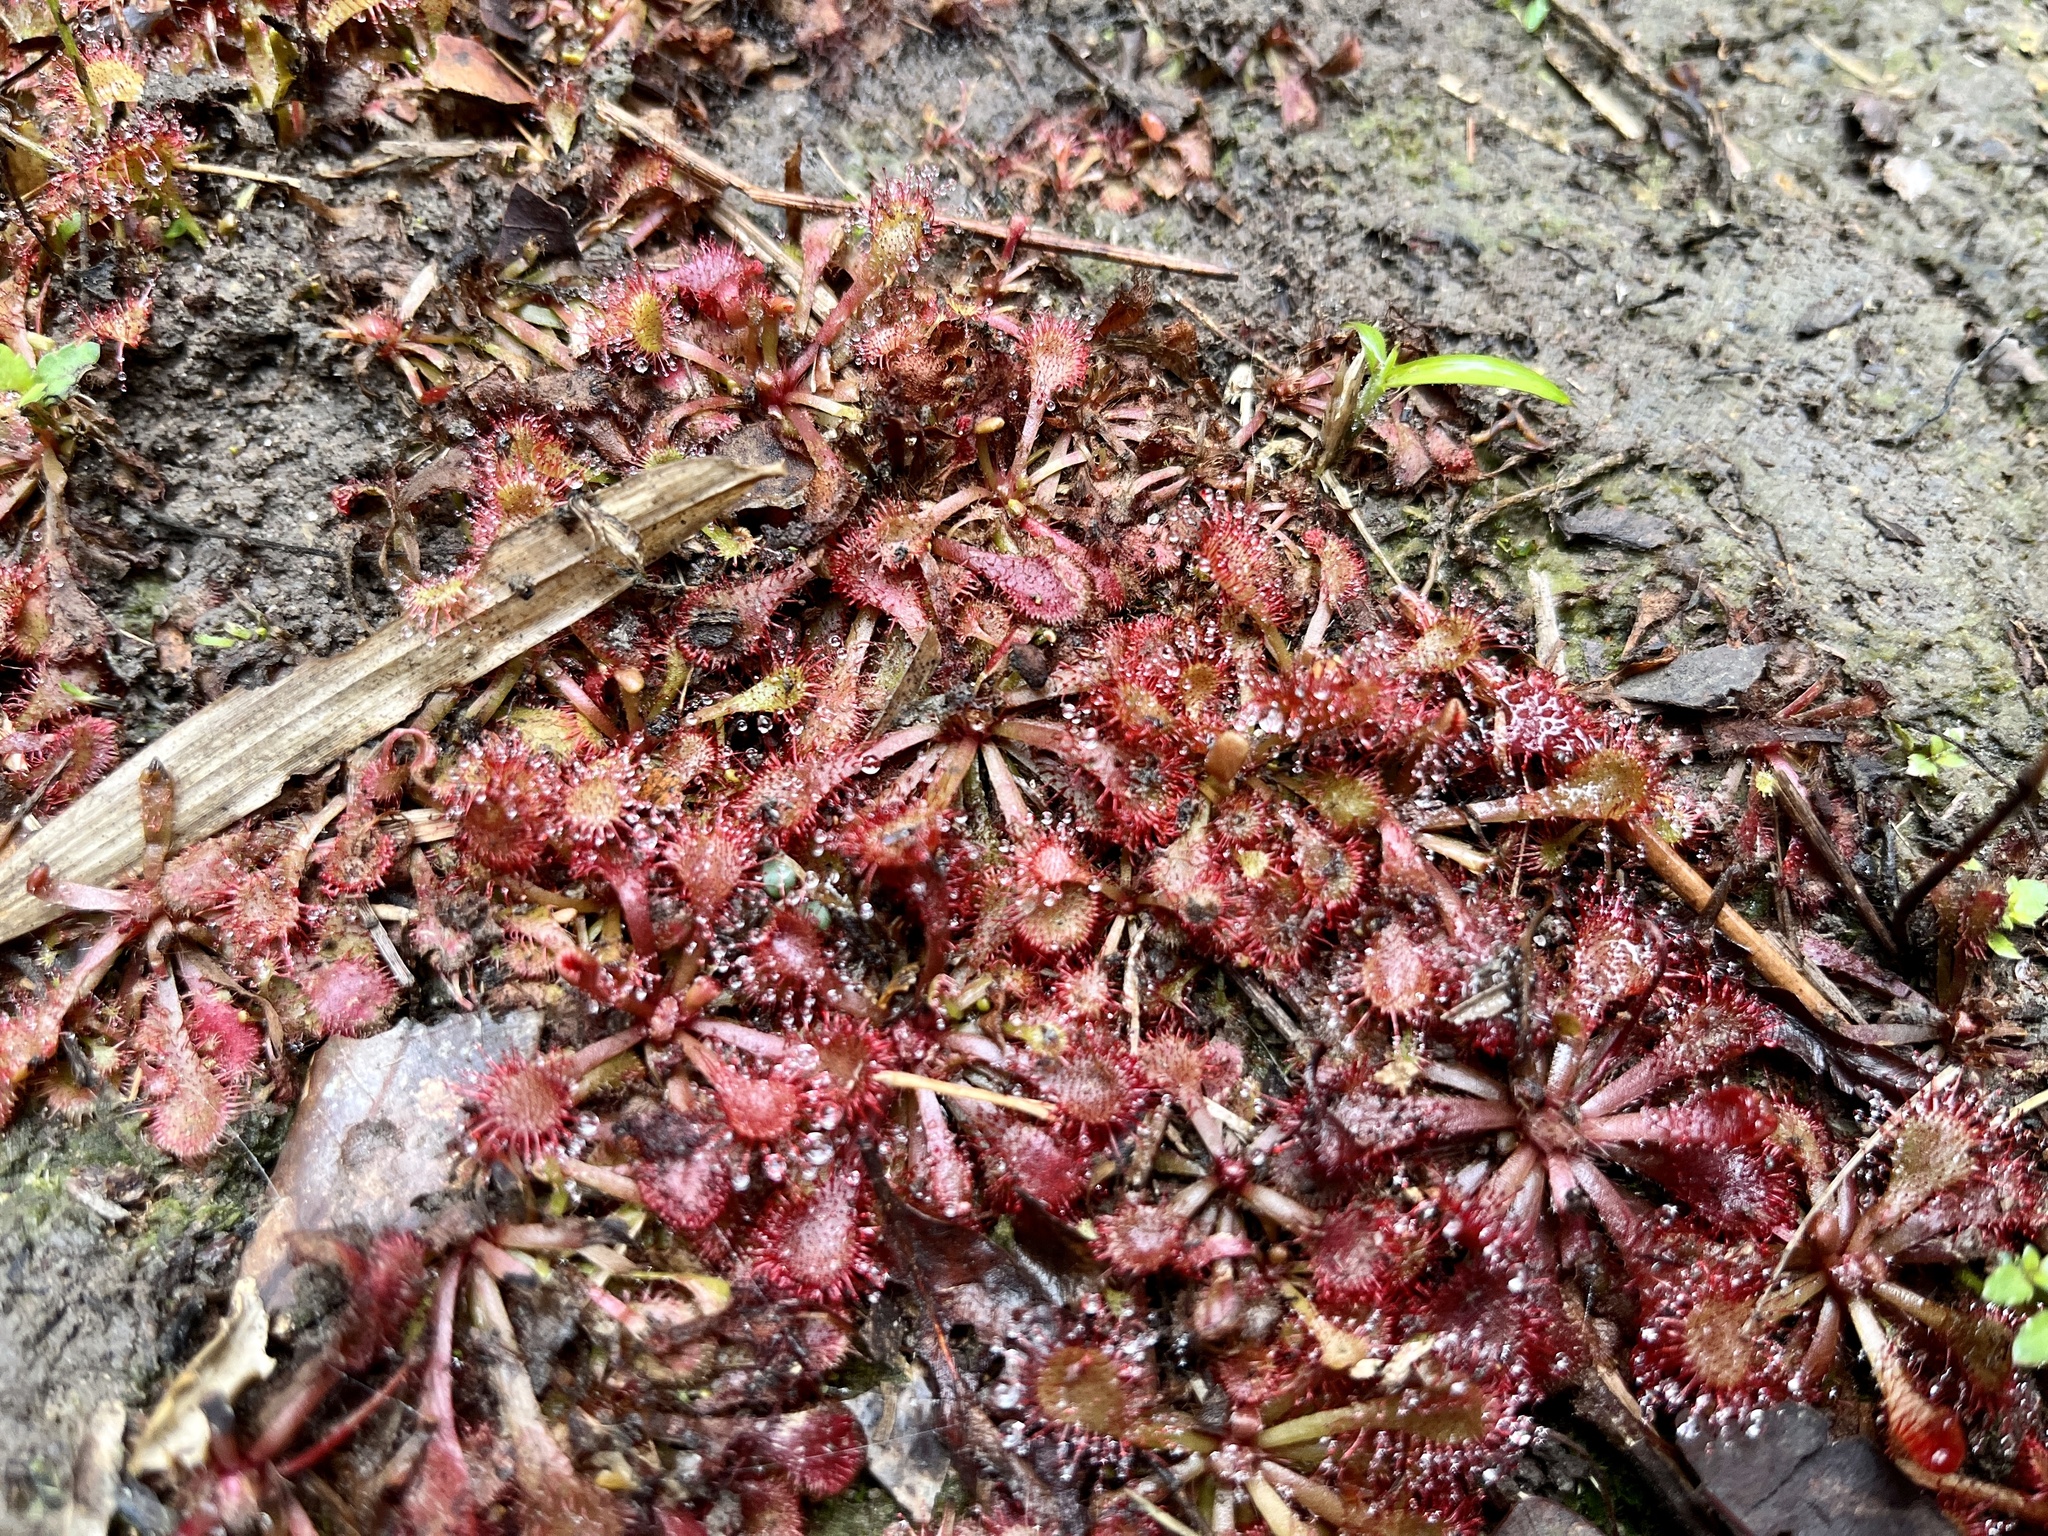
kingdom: Plantae
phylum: Tracheophyta
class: Magnoliopsida
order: Caryophyllales
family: Droseraceae
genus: Drosera
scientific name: Drosera spatulata
